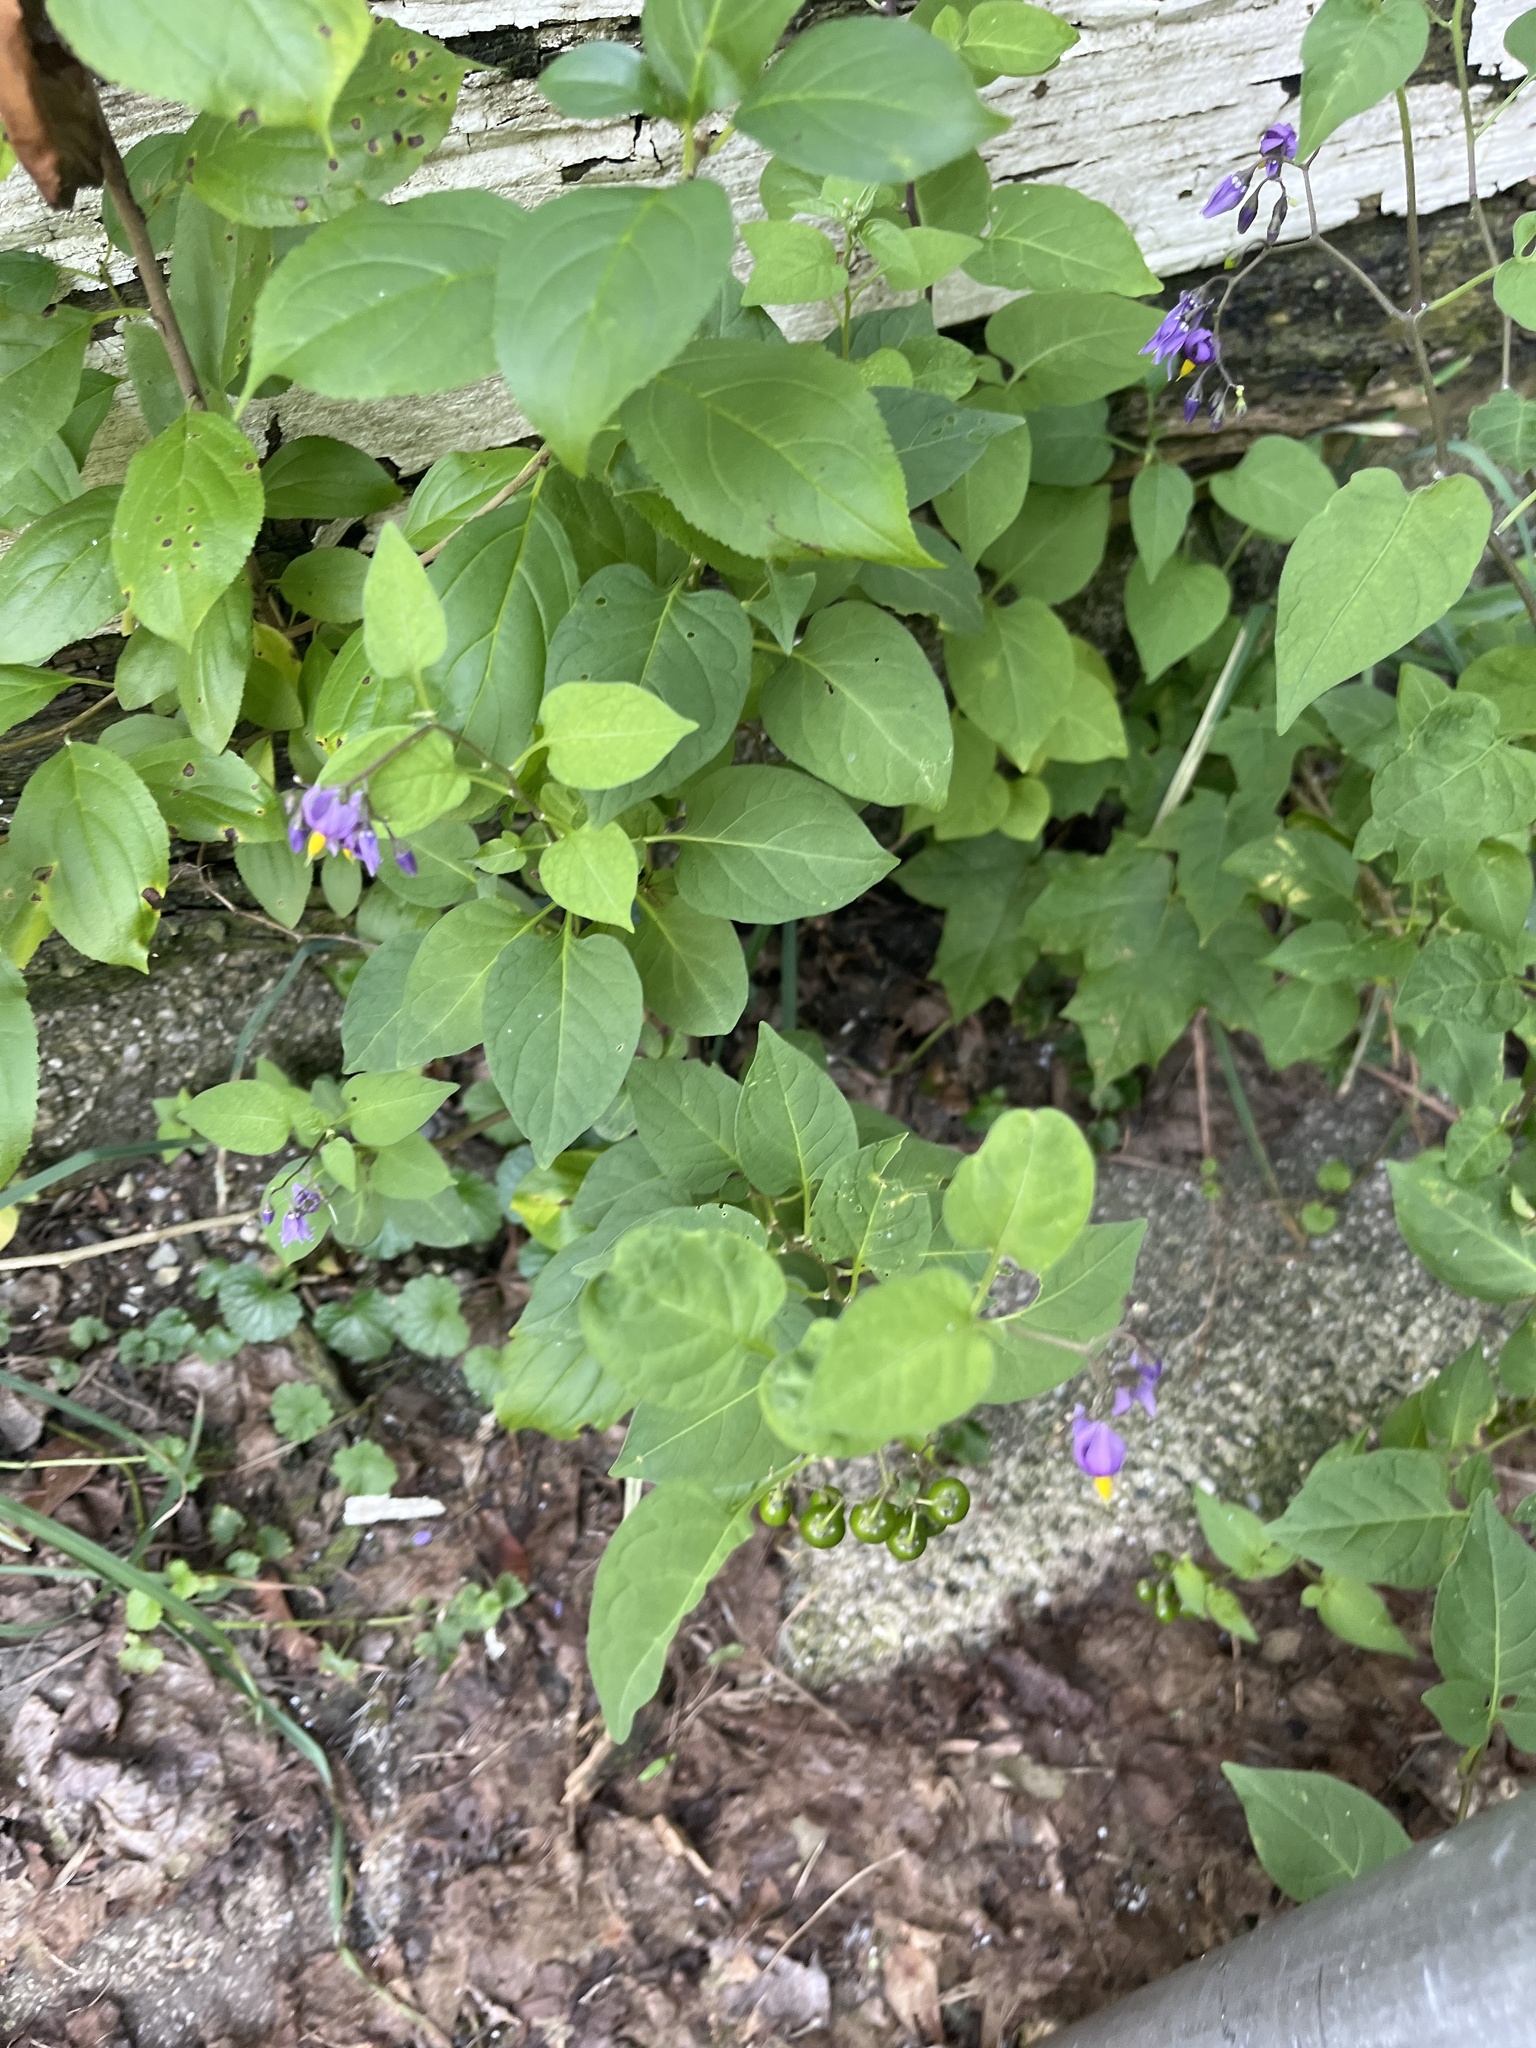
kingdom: Plantae
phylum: Tracheophyta
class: Magnoliopsida
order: Solanales
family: Solanaceae
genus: Solanum
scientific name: Solanum dulcamara
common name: Climbing nightshade
